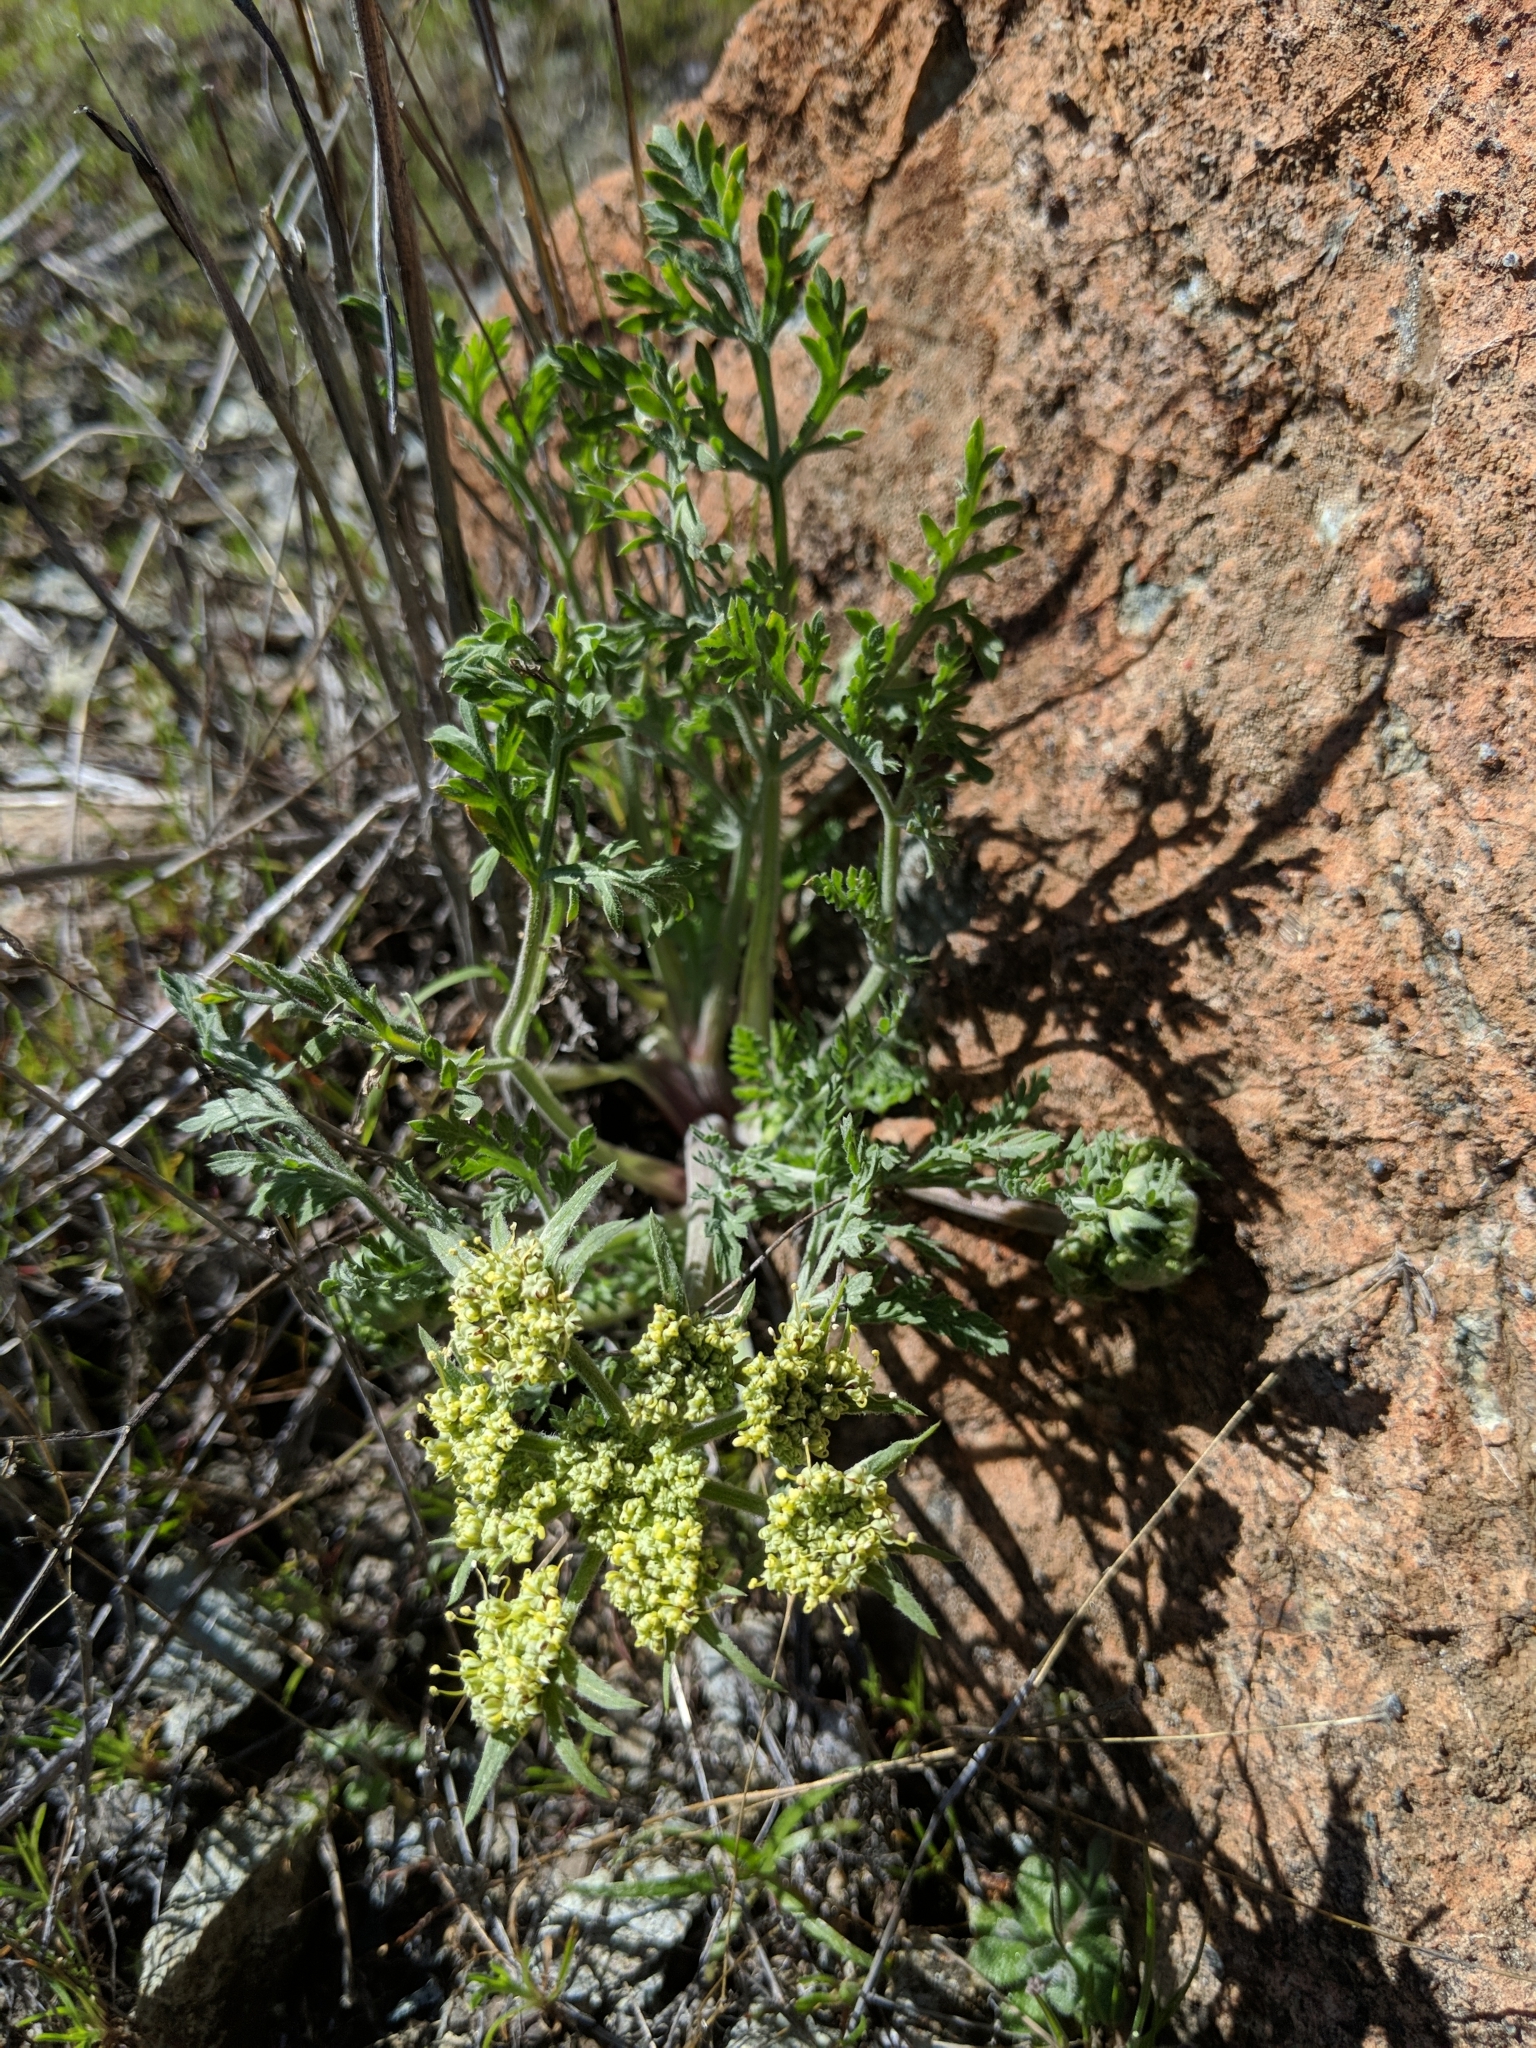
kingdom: Plantae
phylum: Tracheophyta
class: Magnoliopsida
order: Apiales
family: Apiaceae
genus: Lomatium
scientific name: Lomatium macrocarpum
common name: Big-seed biscuitroot
